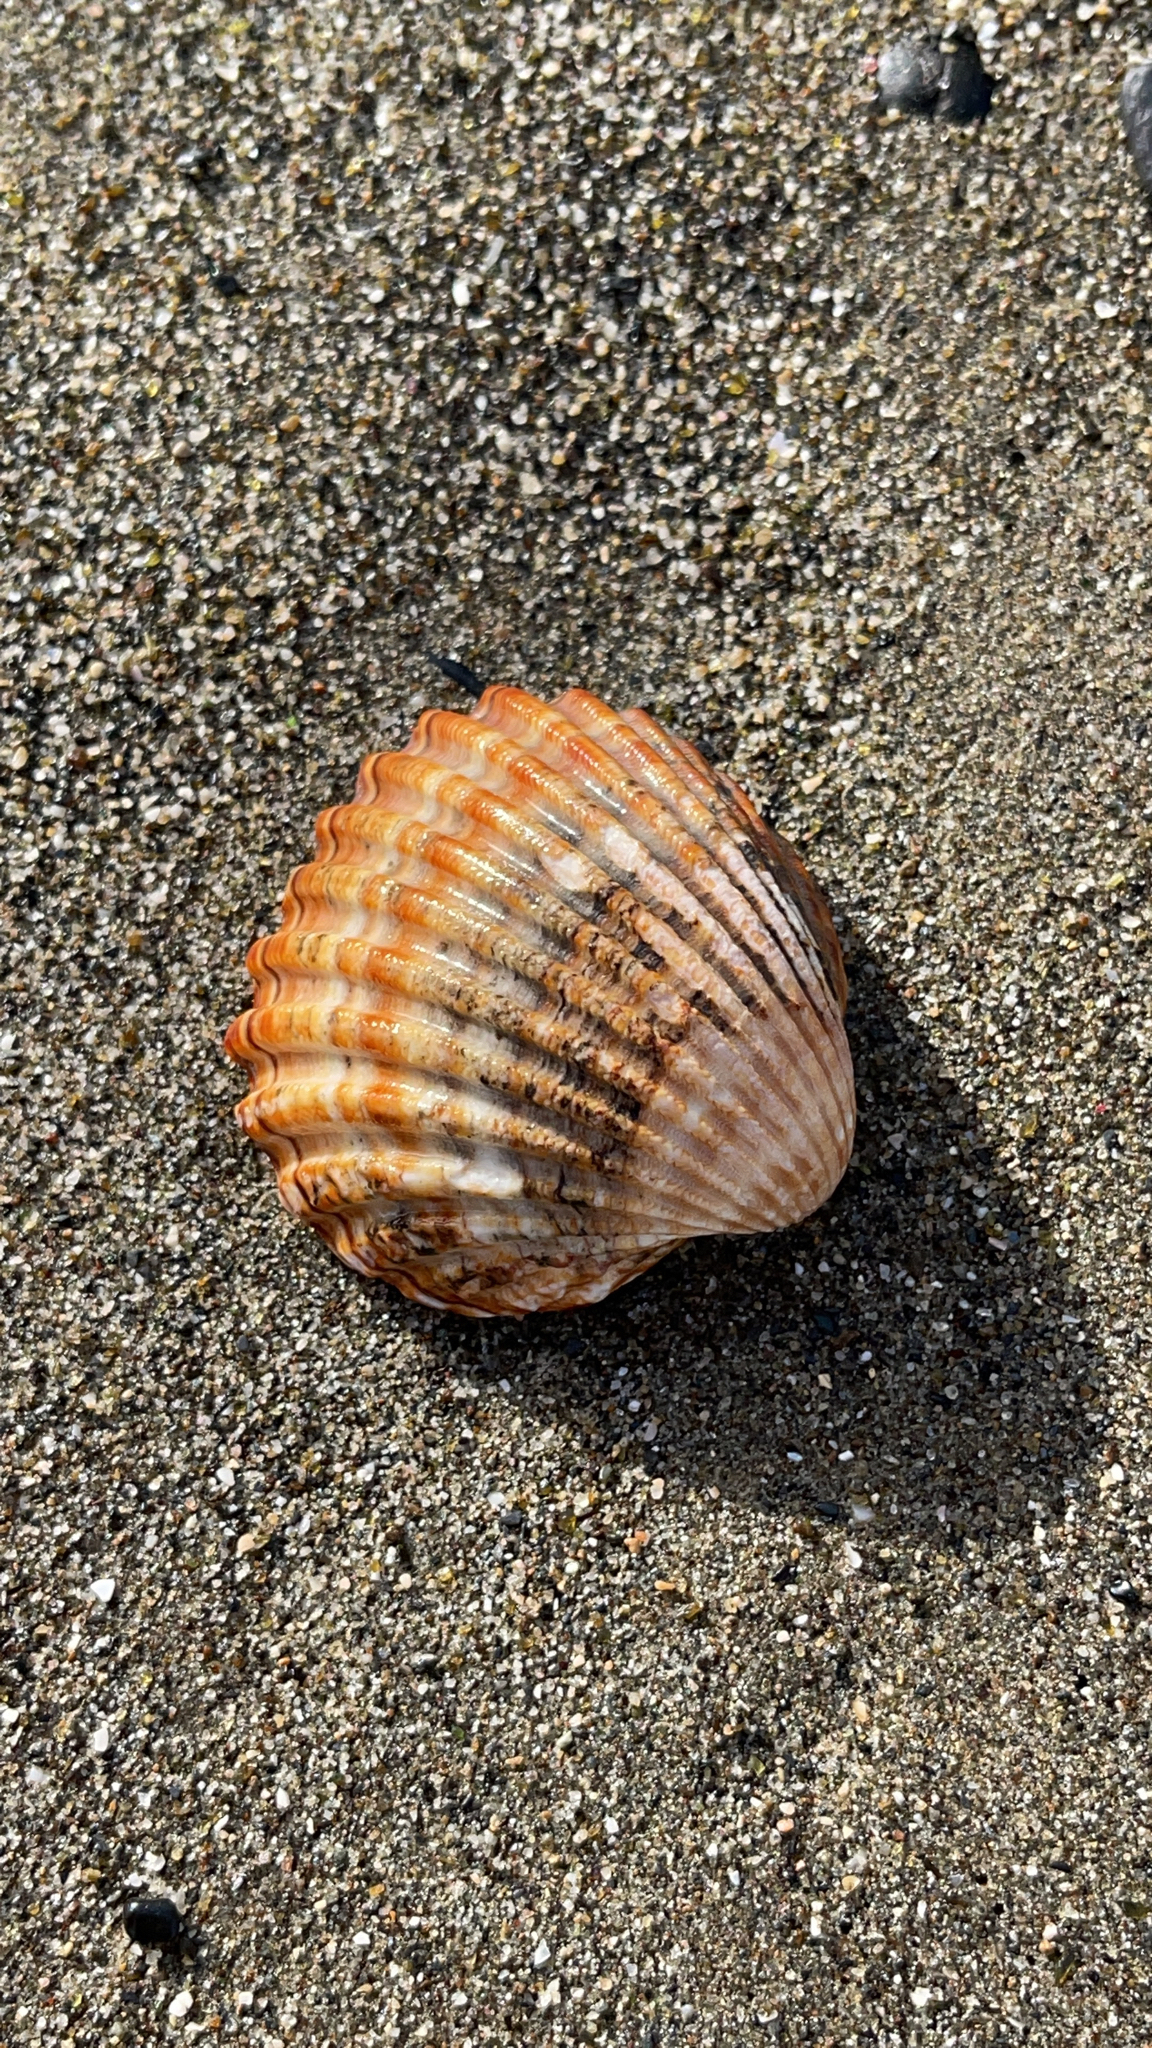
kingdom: Animalia
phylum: Mollusca
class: Bivalvia
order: Cardiida
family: Cardiidae
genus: Acanthocardia
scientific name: Acanthocardia tuberculata
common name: Rough cockle
